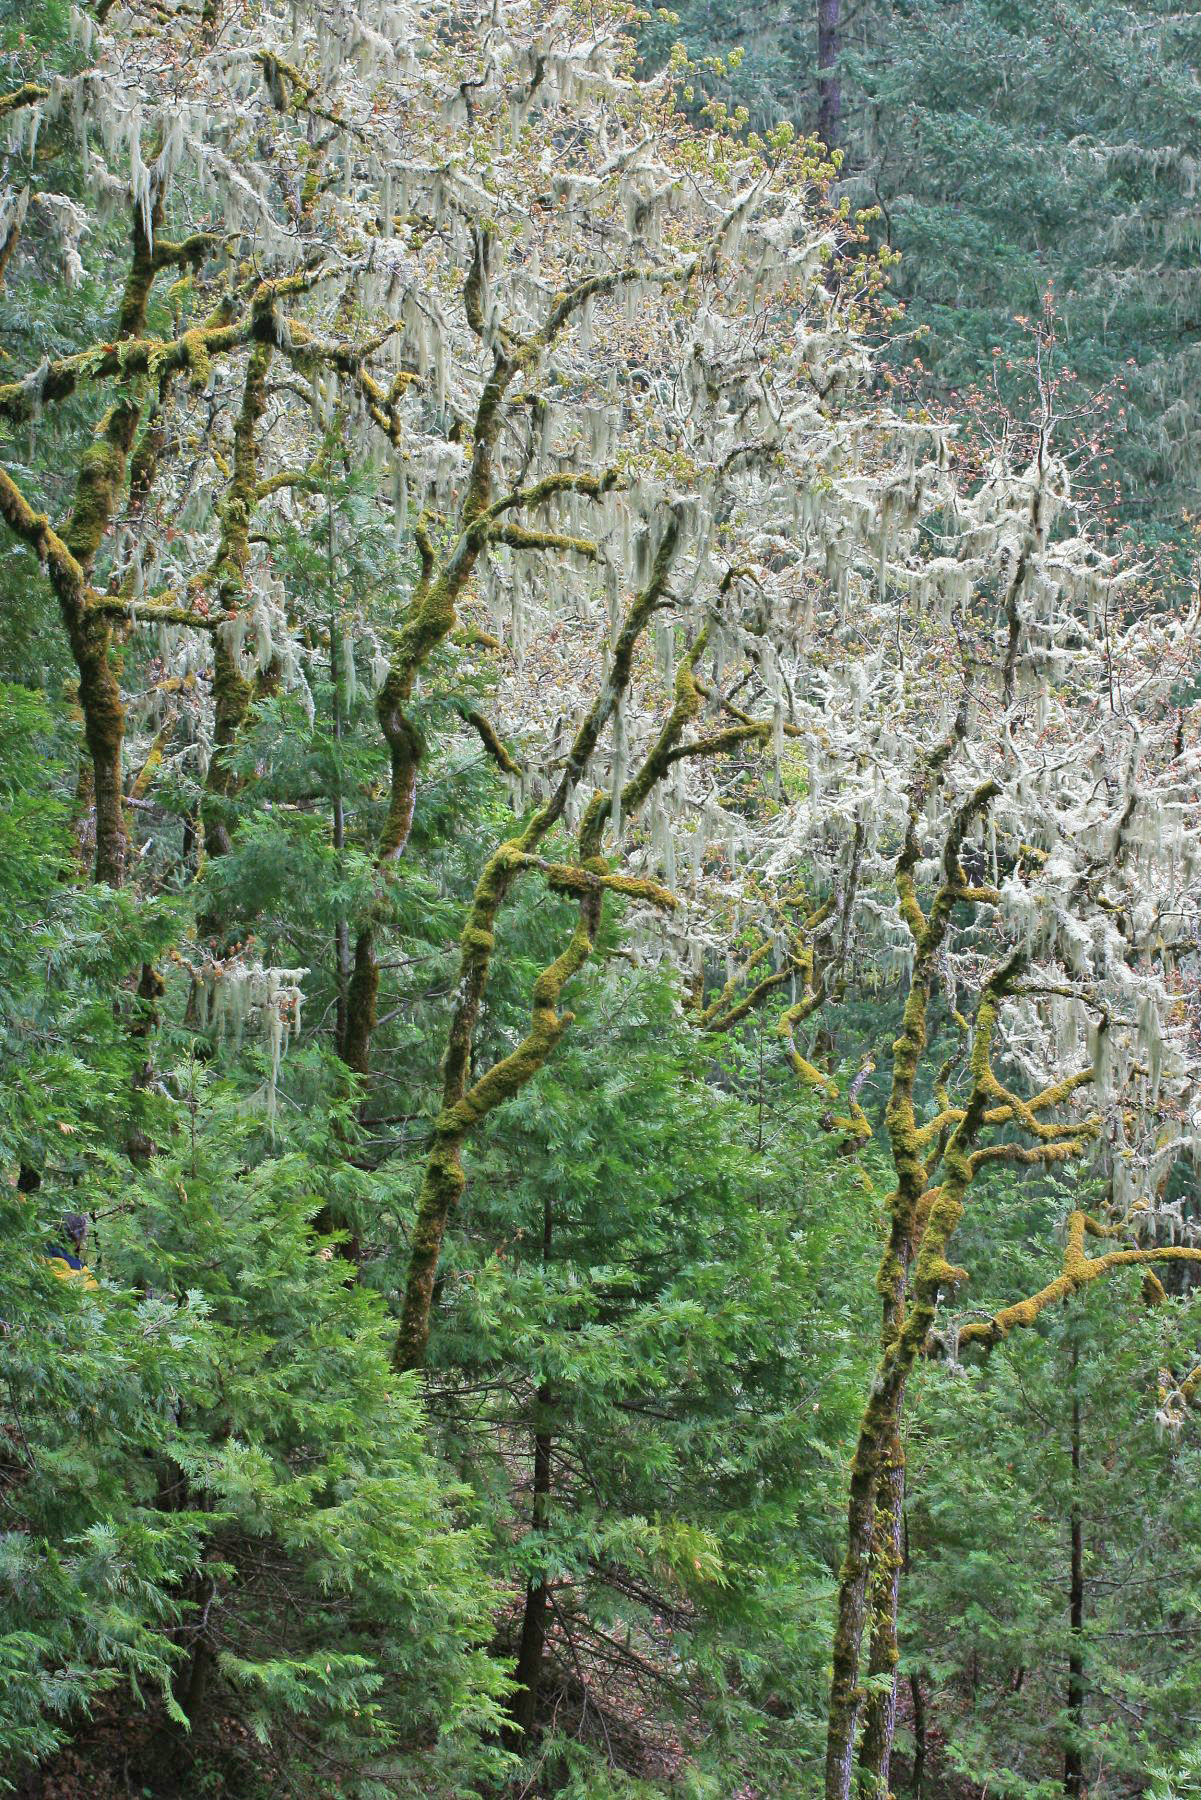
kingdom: Plantae
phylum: Tracheophyta
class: Magnoliopsida
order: Fagales
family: Fagaceae
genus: Quercus
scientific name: Quercus garryana
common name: Garry oak
